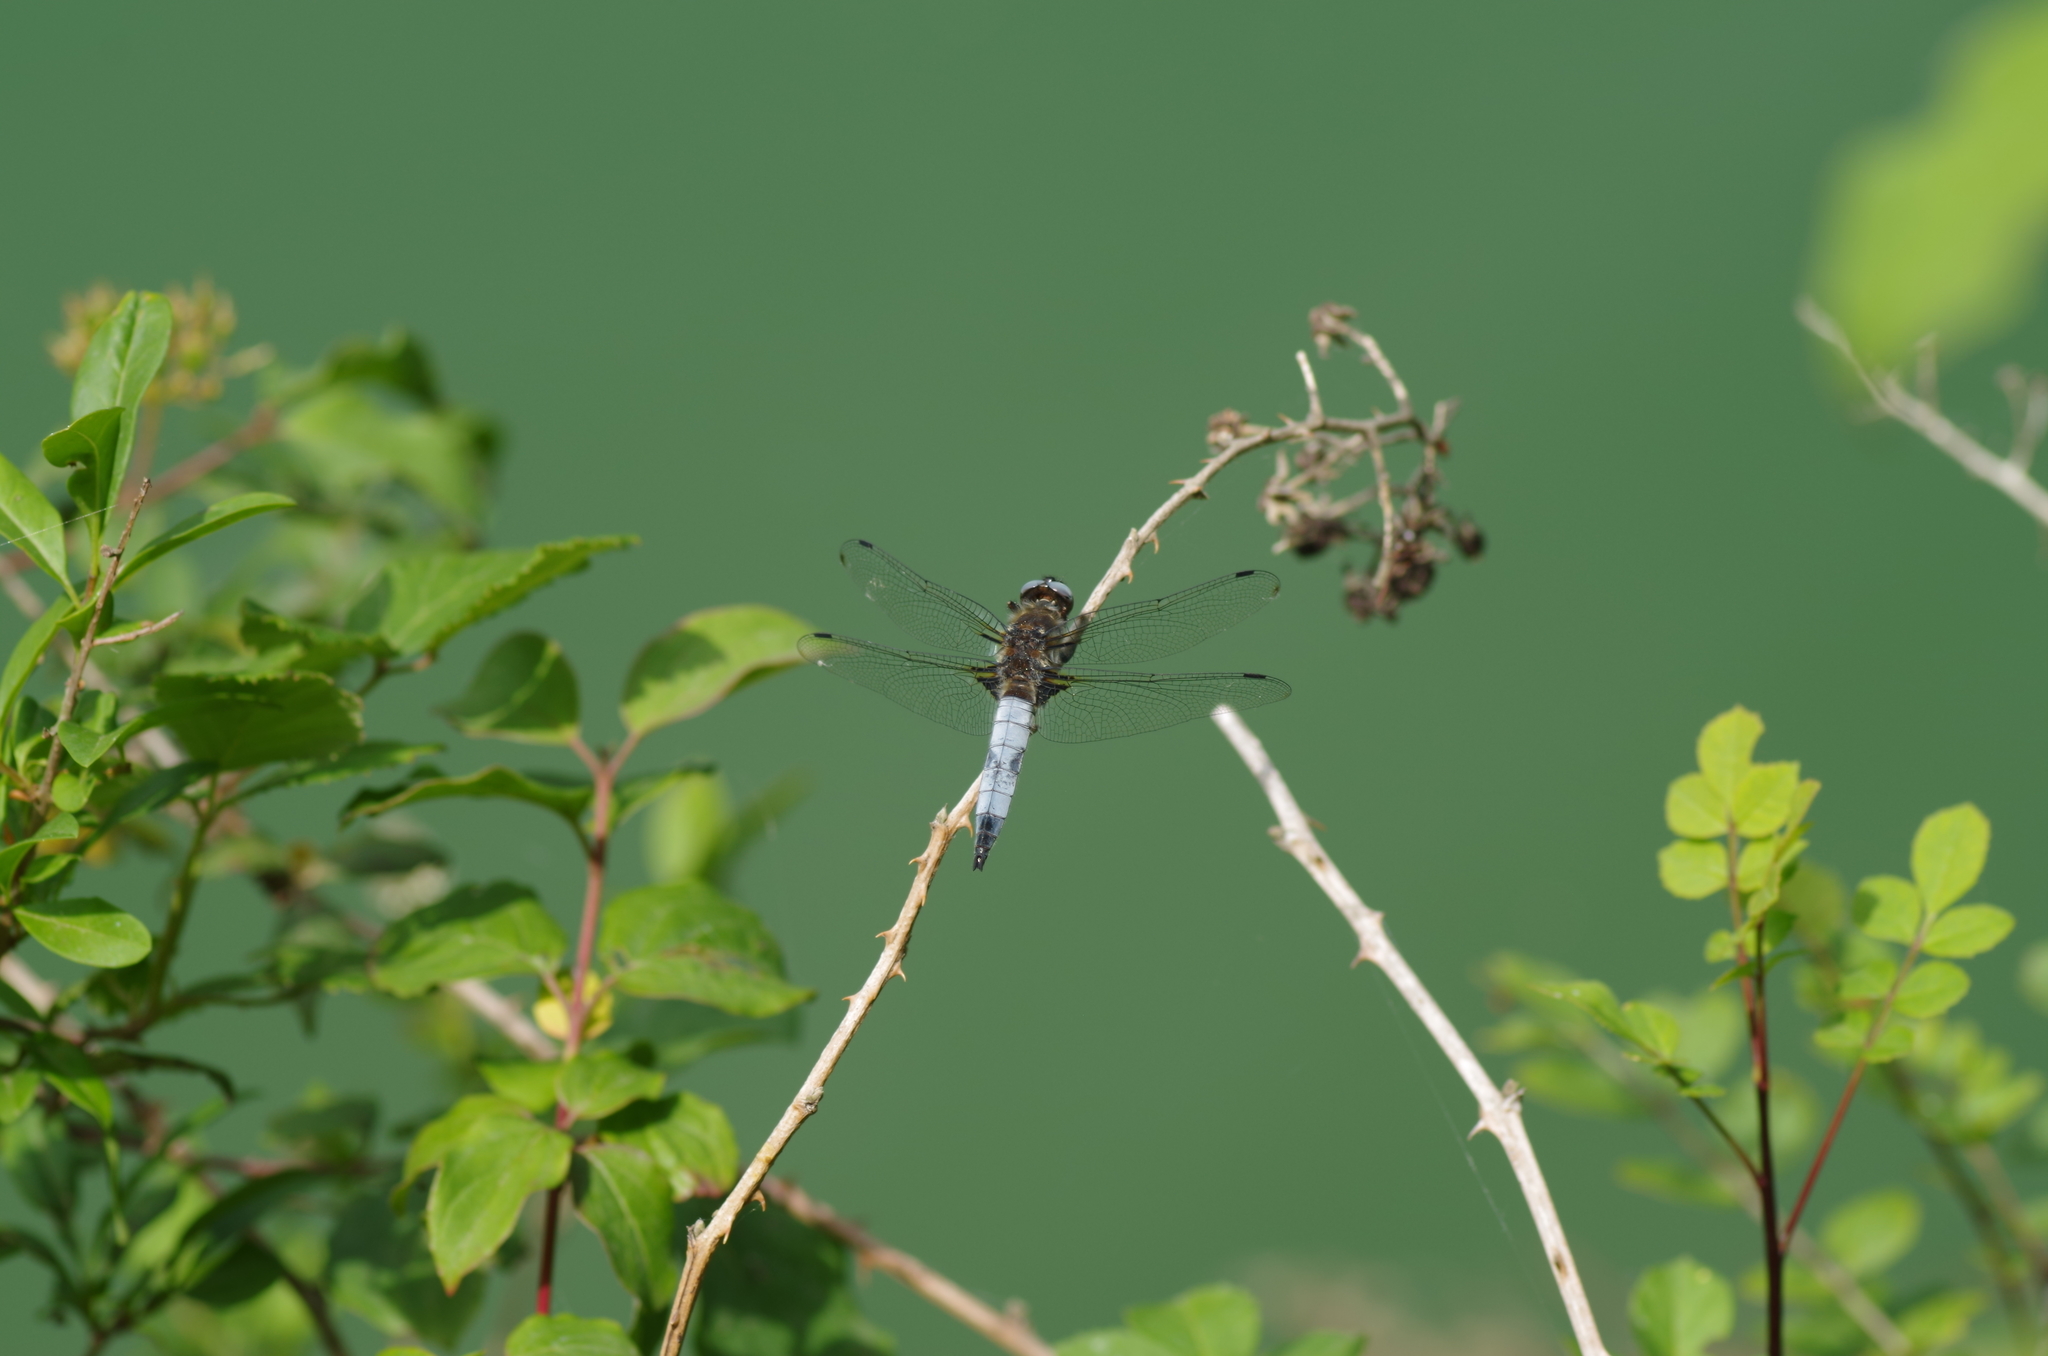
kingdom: Animalia
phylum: Arthropoda
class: Insecta
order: Odonata
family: Libellulidae
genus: Libellula
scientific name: Libellula fulva
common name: Blue chaser
